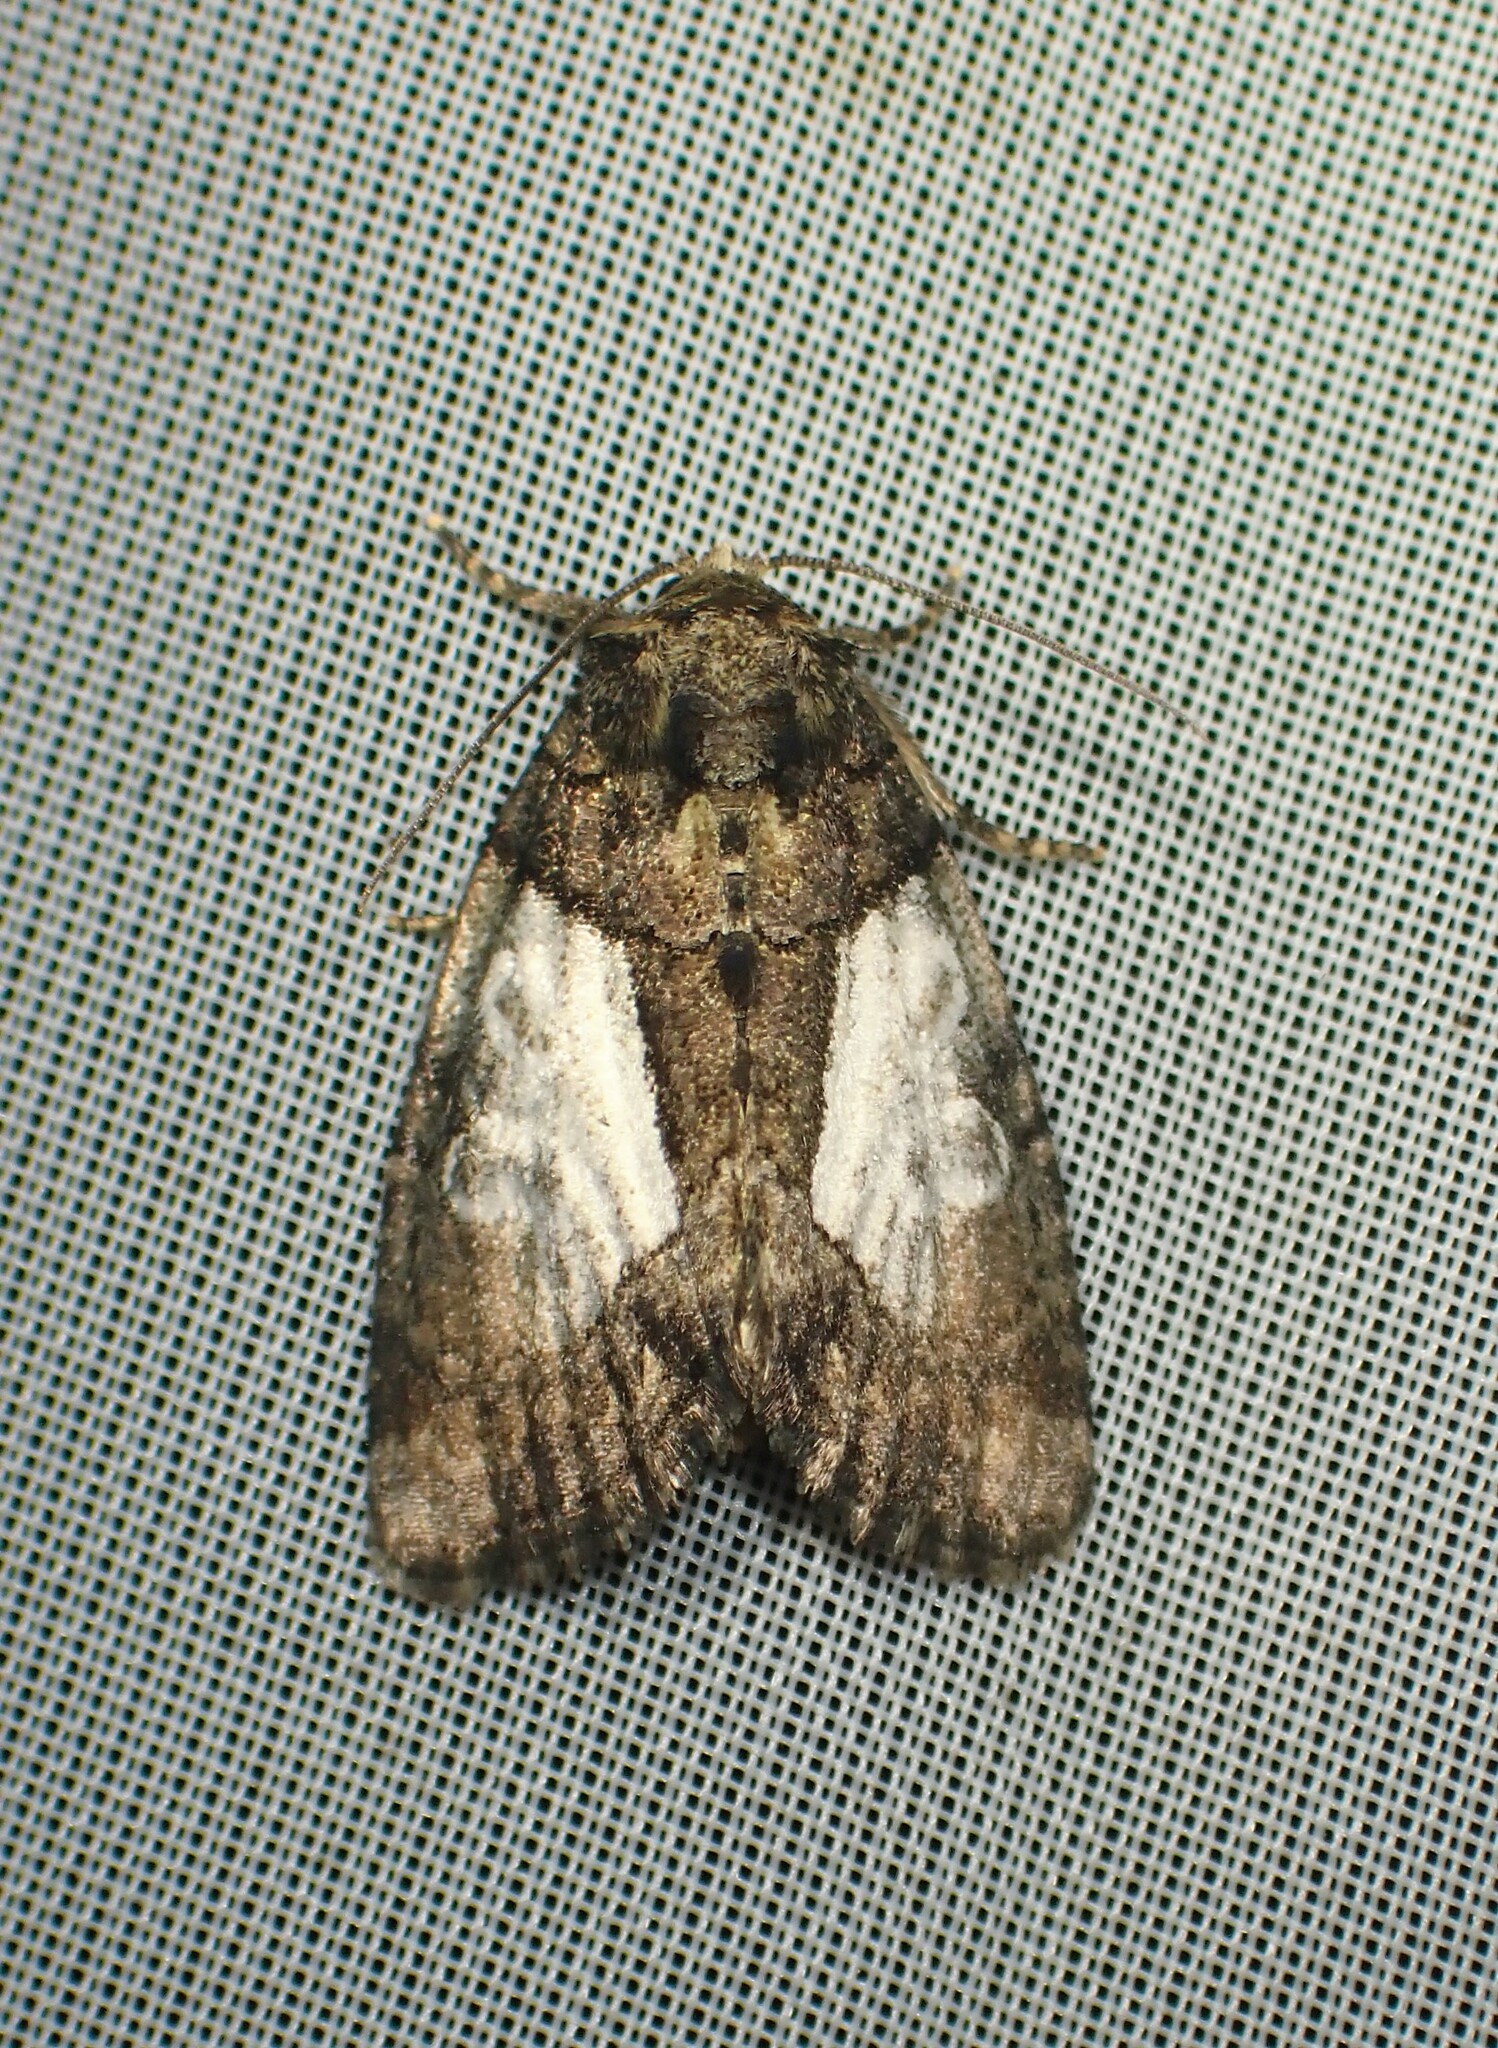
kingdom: Animalia
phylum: Arthropoda
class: Insecta
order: Lepidoptera
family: Noctuidae
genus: Chytonix
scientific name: Chytonix palliatricula
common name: Cloaked marvel
